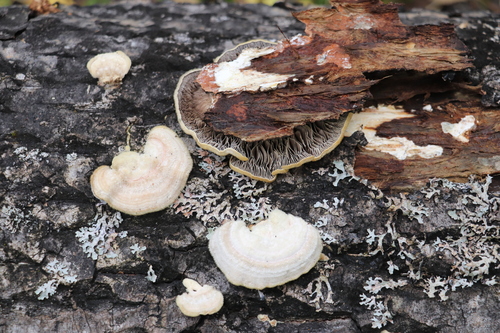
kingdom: Fungi
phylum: Basidiomycota
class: Agaricomycetes
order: Polyporales
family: Polyporaceae
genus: Lenzites
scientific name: Lenzites betulinus
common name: Birch mazegill
